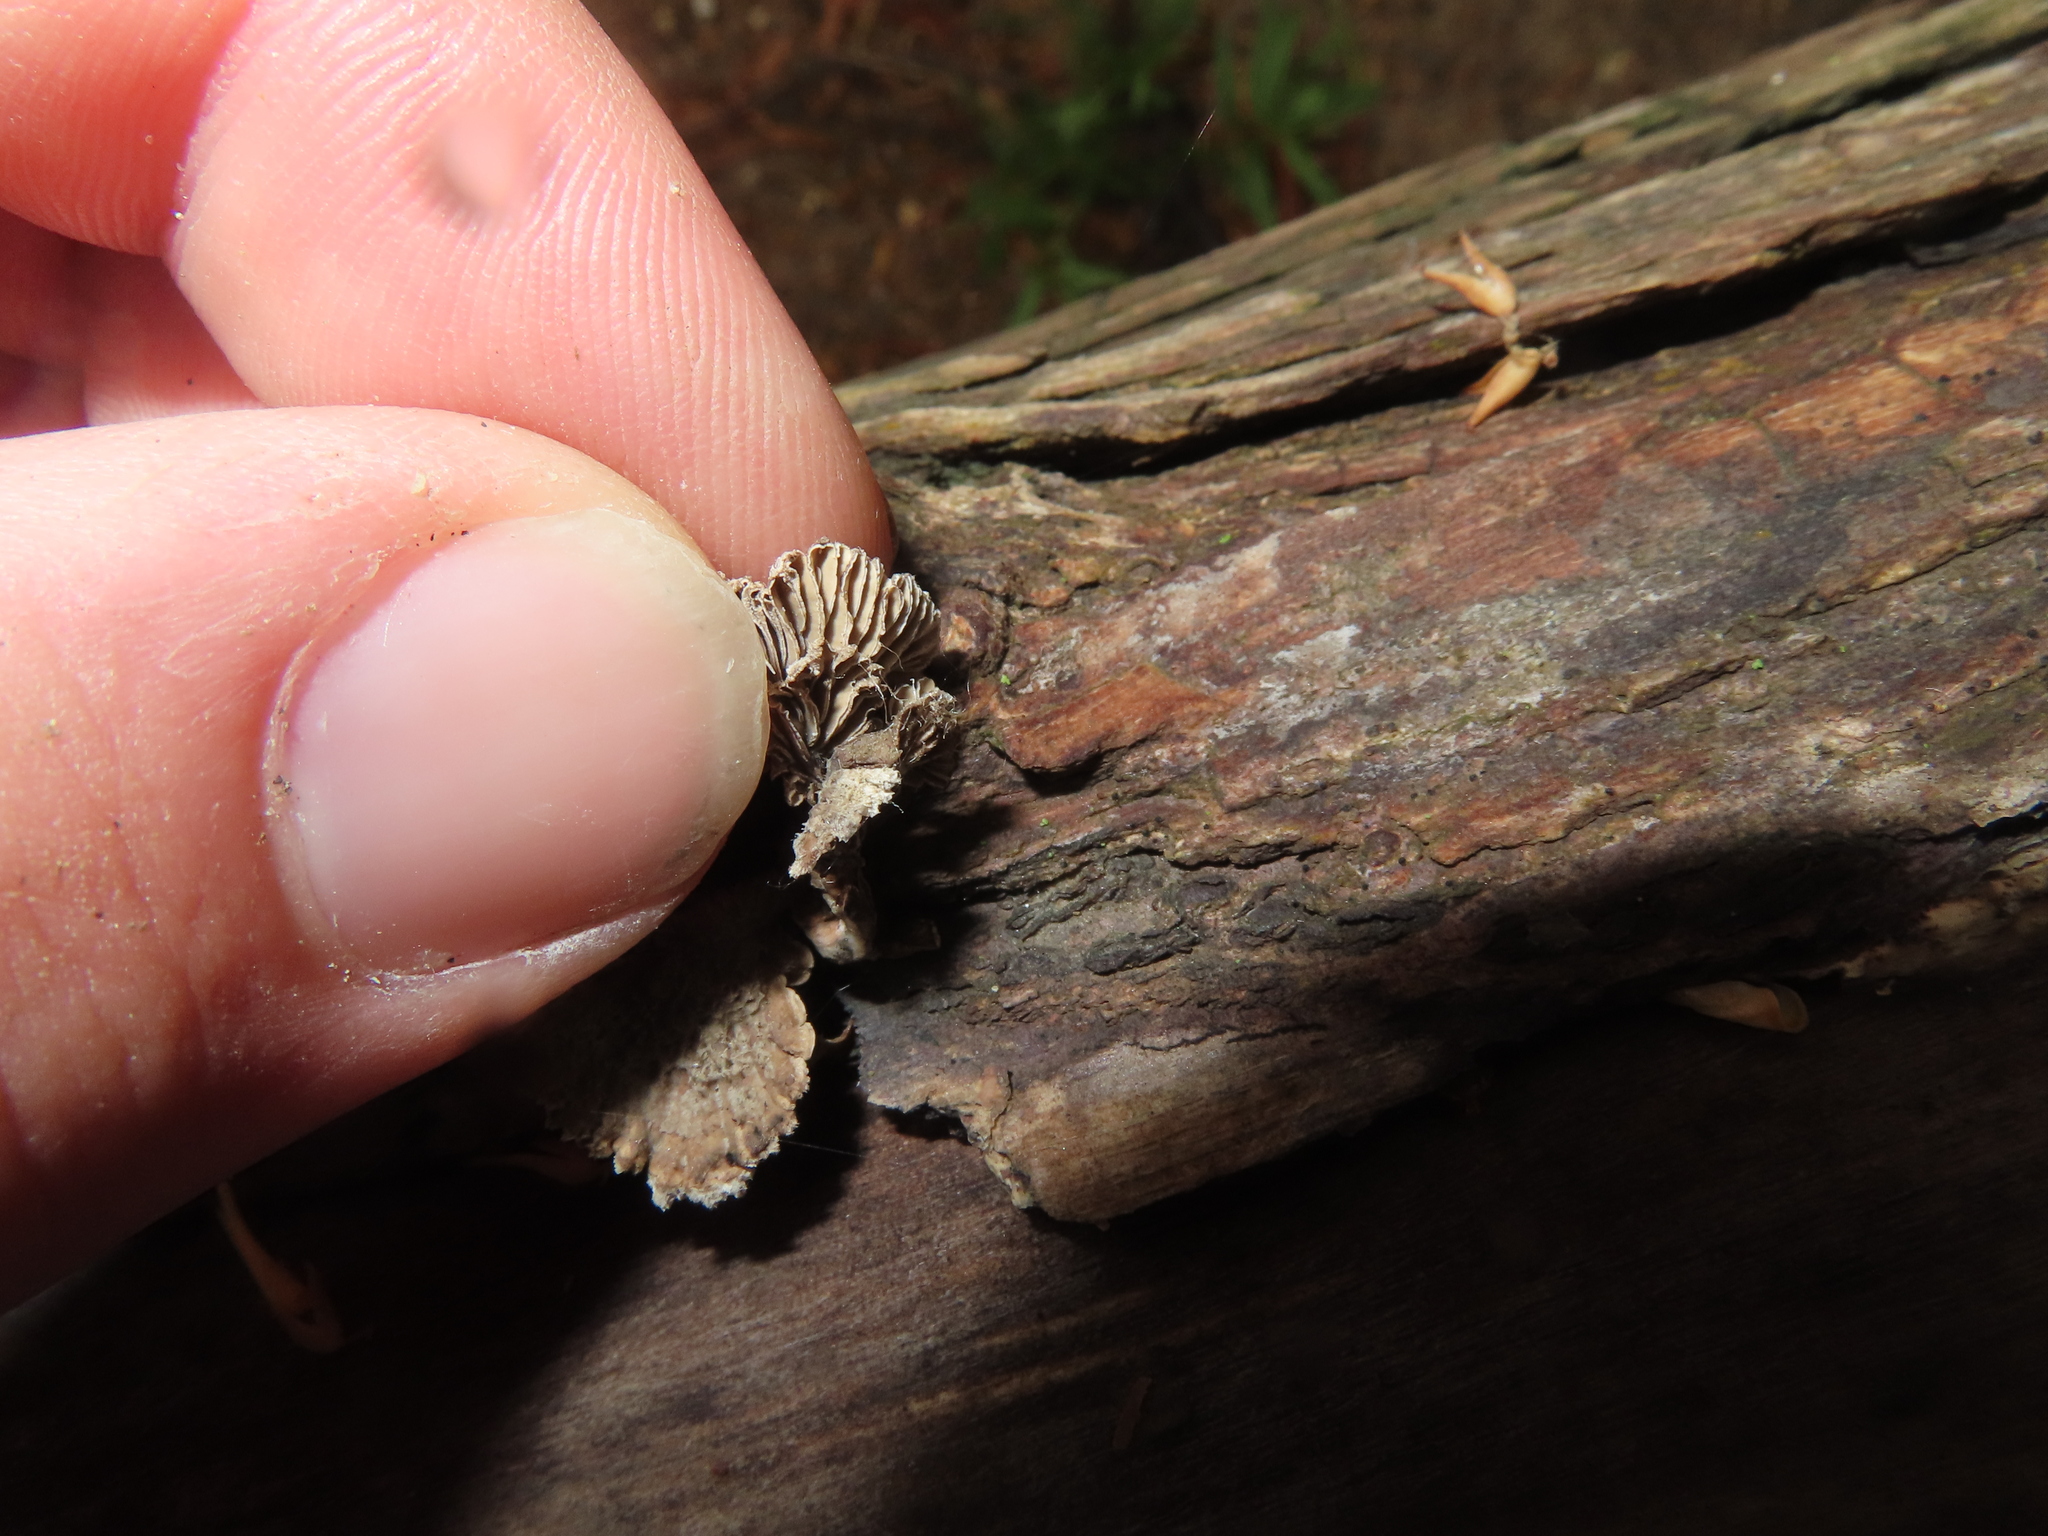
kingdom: Fungi
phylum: Basidiomycota
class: Agaricomycetes
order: Agaricales
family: Schizophyllaceae
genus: Schizophyllum
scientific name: Schizophyllum commune
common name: Common porecrust
